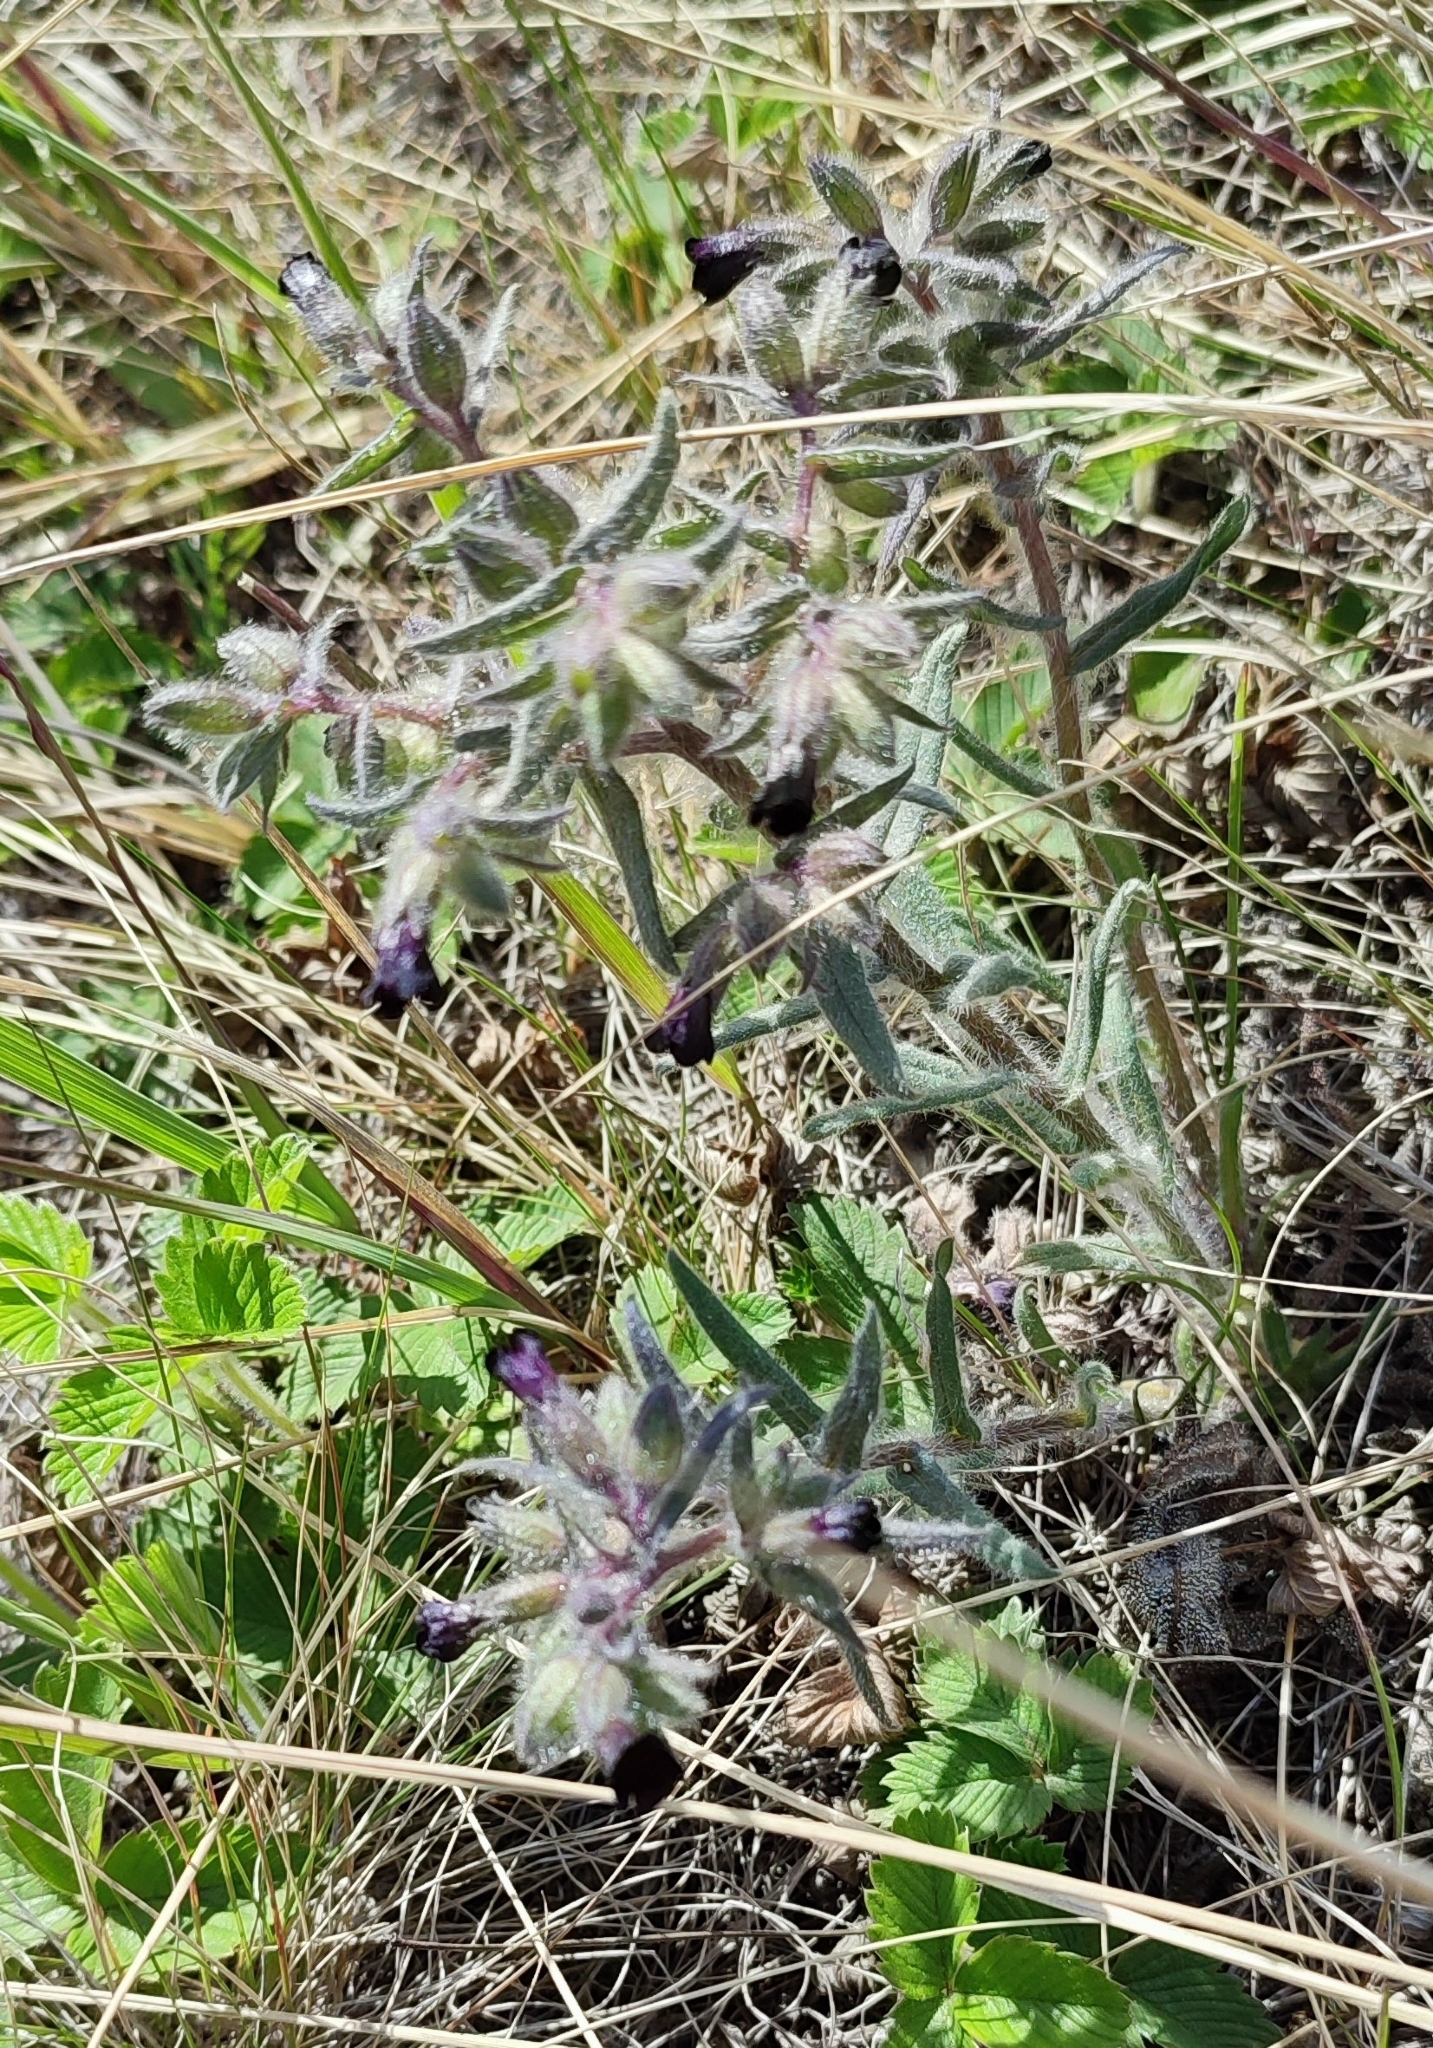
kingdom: Plantae
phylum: Tracheophyta
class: Magnoliopsida
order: Boraginales
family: Boraginaceae
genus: Nonea
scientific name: Nonea pulla
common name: Brown nonea
